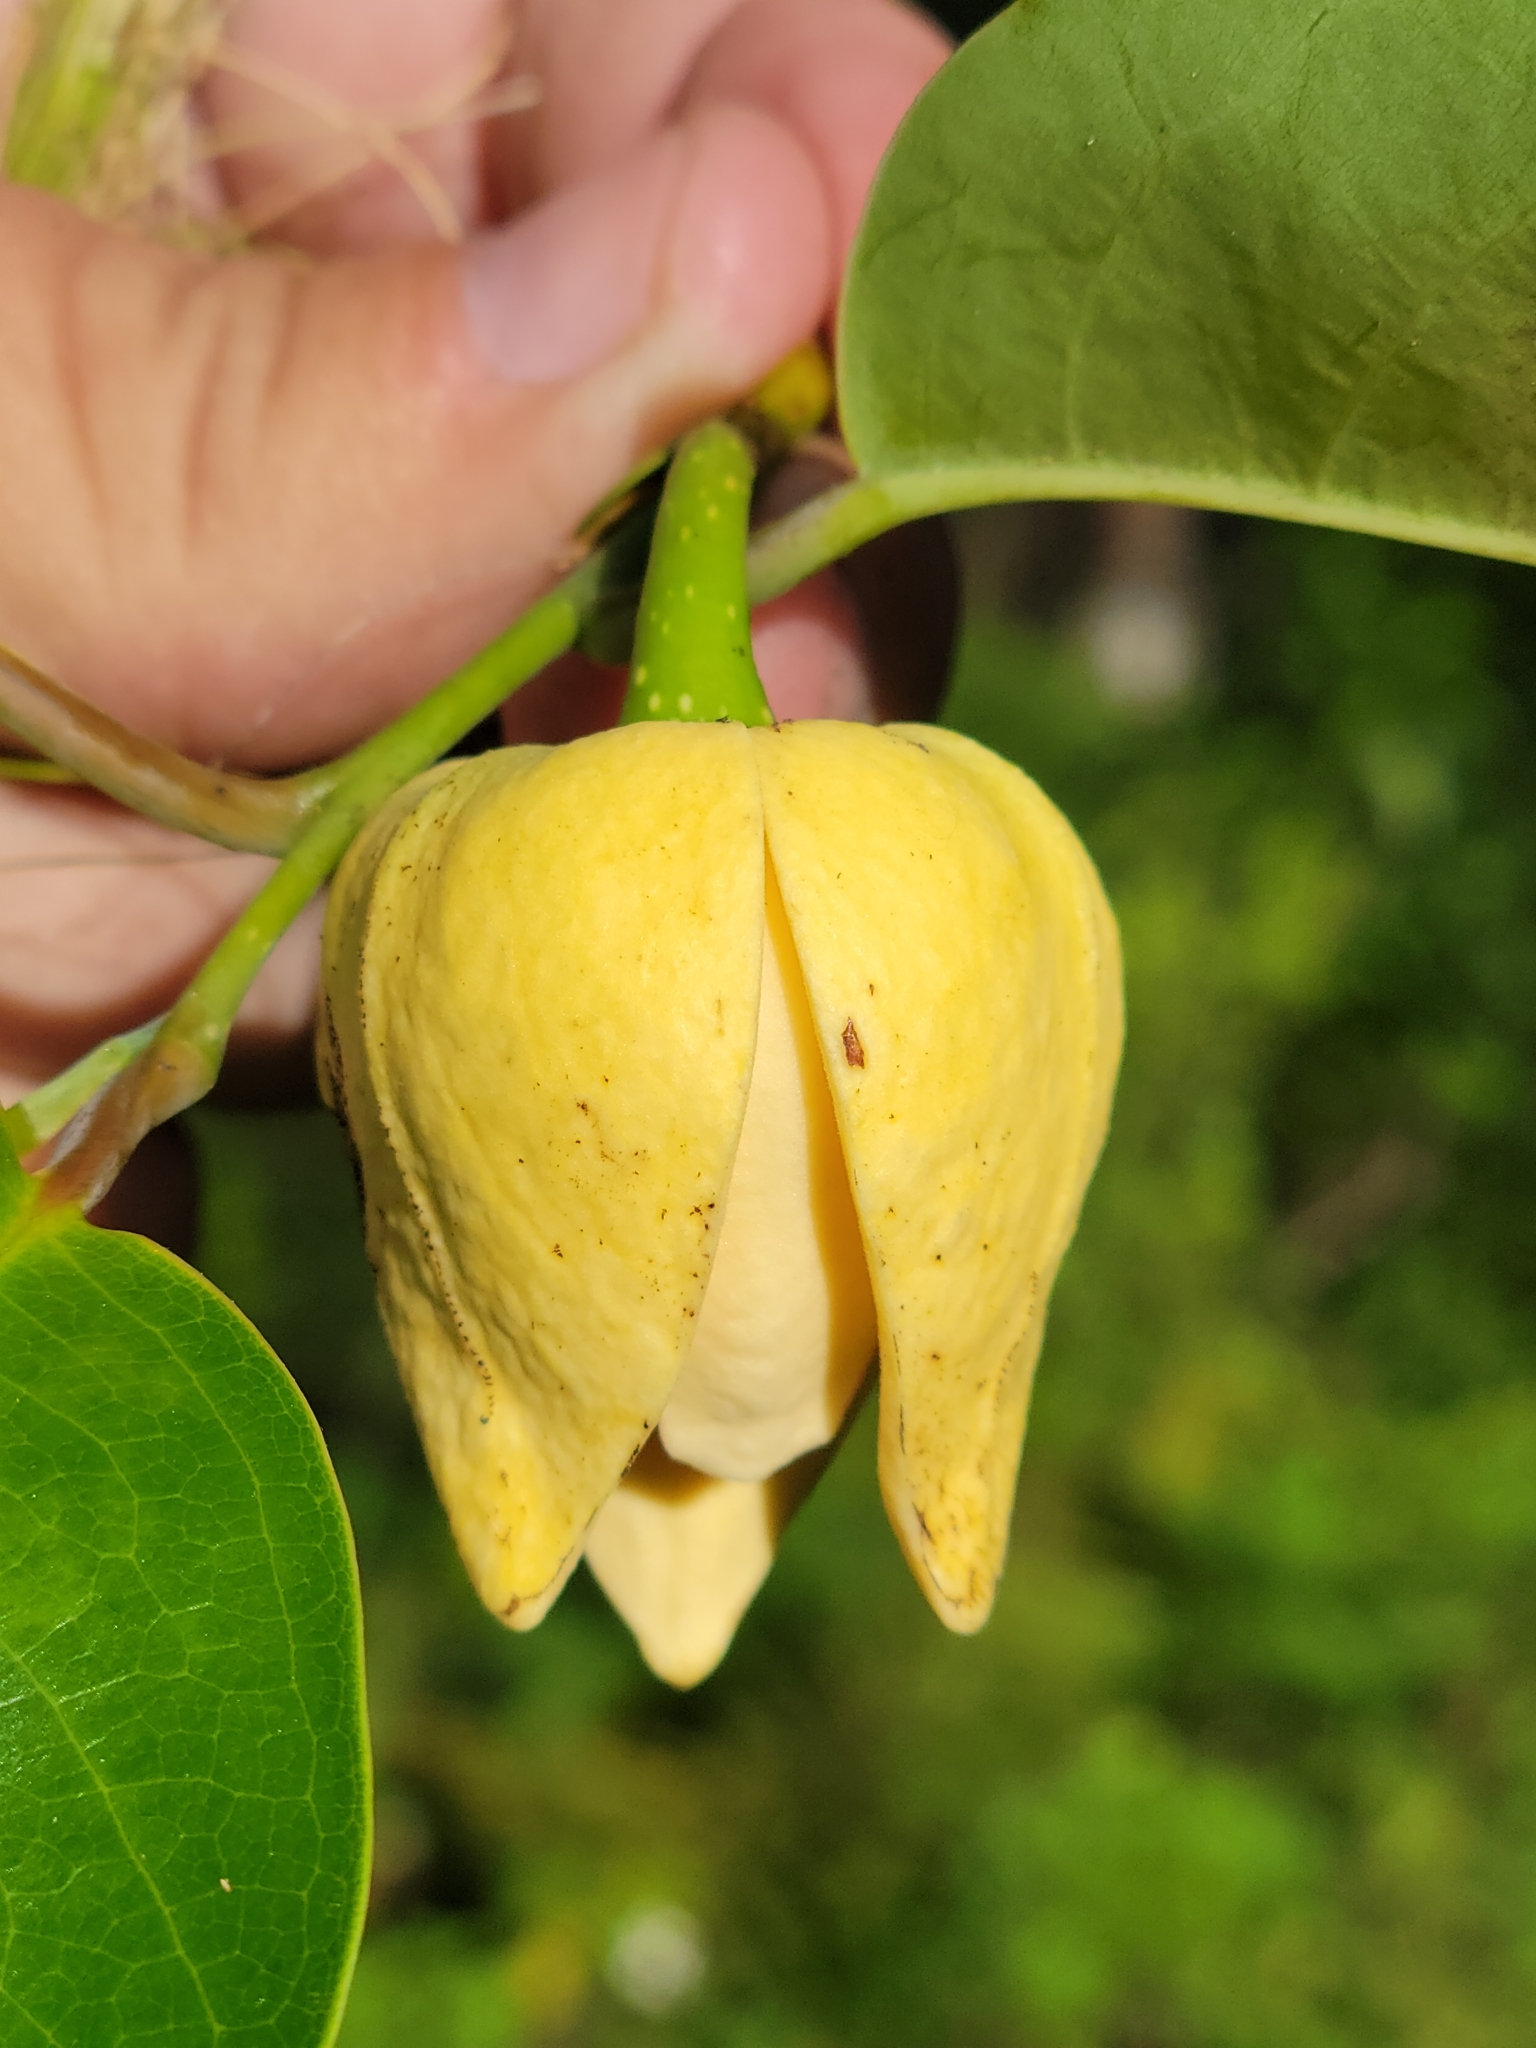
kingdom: Plantae
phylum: Tracheophyta
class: Magnoliopsida
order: Magnoliales
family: Annonaceae
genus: Annona
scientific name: Annona glabra
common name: Monkey apple
